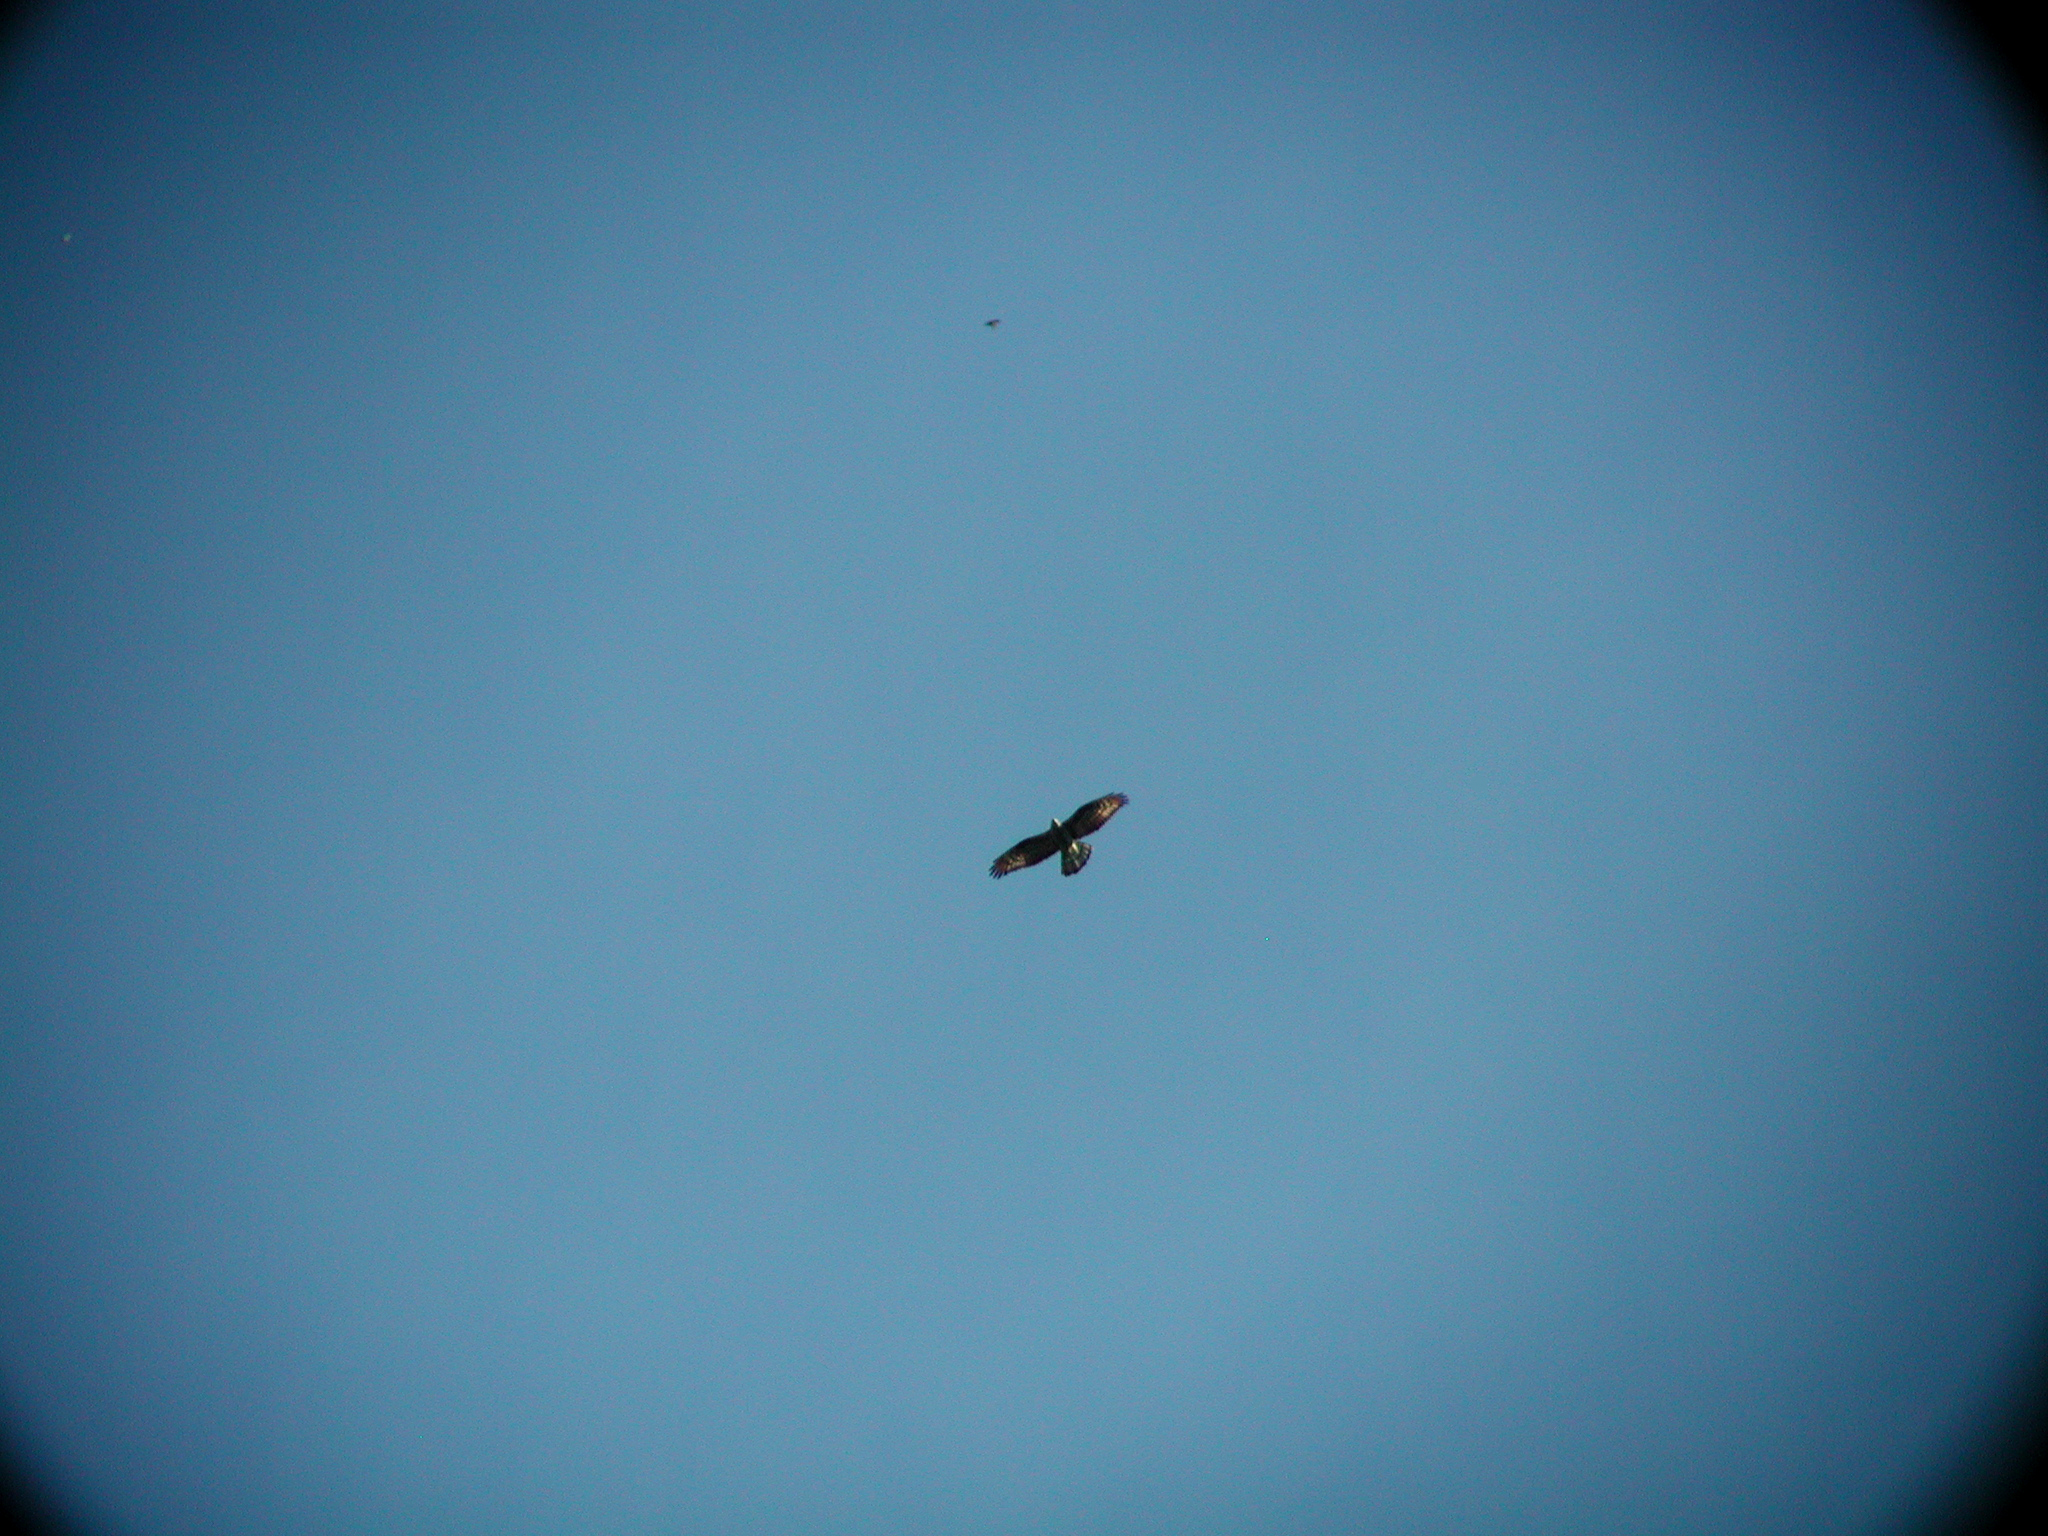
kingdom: Animalia
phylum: Chordata
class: Aves
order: Accipitriformes
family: Accipitridae
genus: Pernis
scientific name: Pernis apivorus
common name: European honey buzzard
